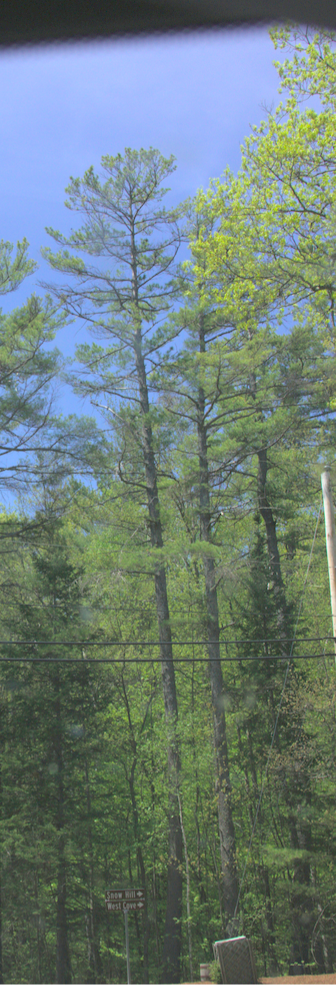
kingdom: Plantae
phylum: Tracheophyta
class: Pinopsida
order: Pinales
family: Pinaceae
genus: Pinus
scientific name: Pinus strobus
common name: Weymouth pine
